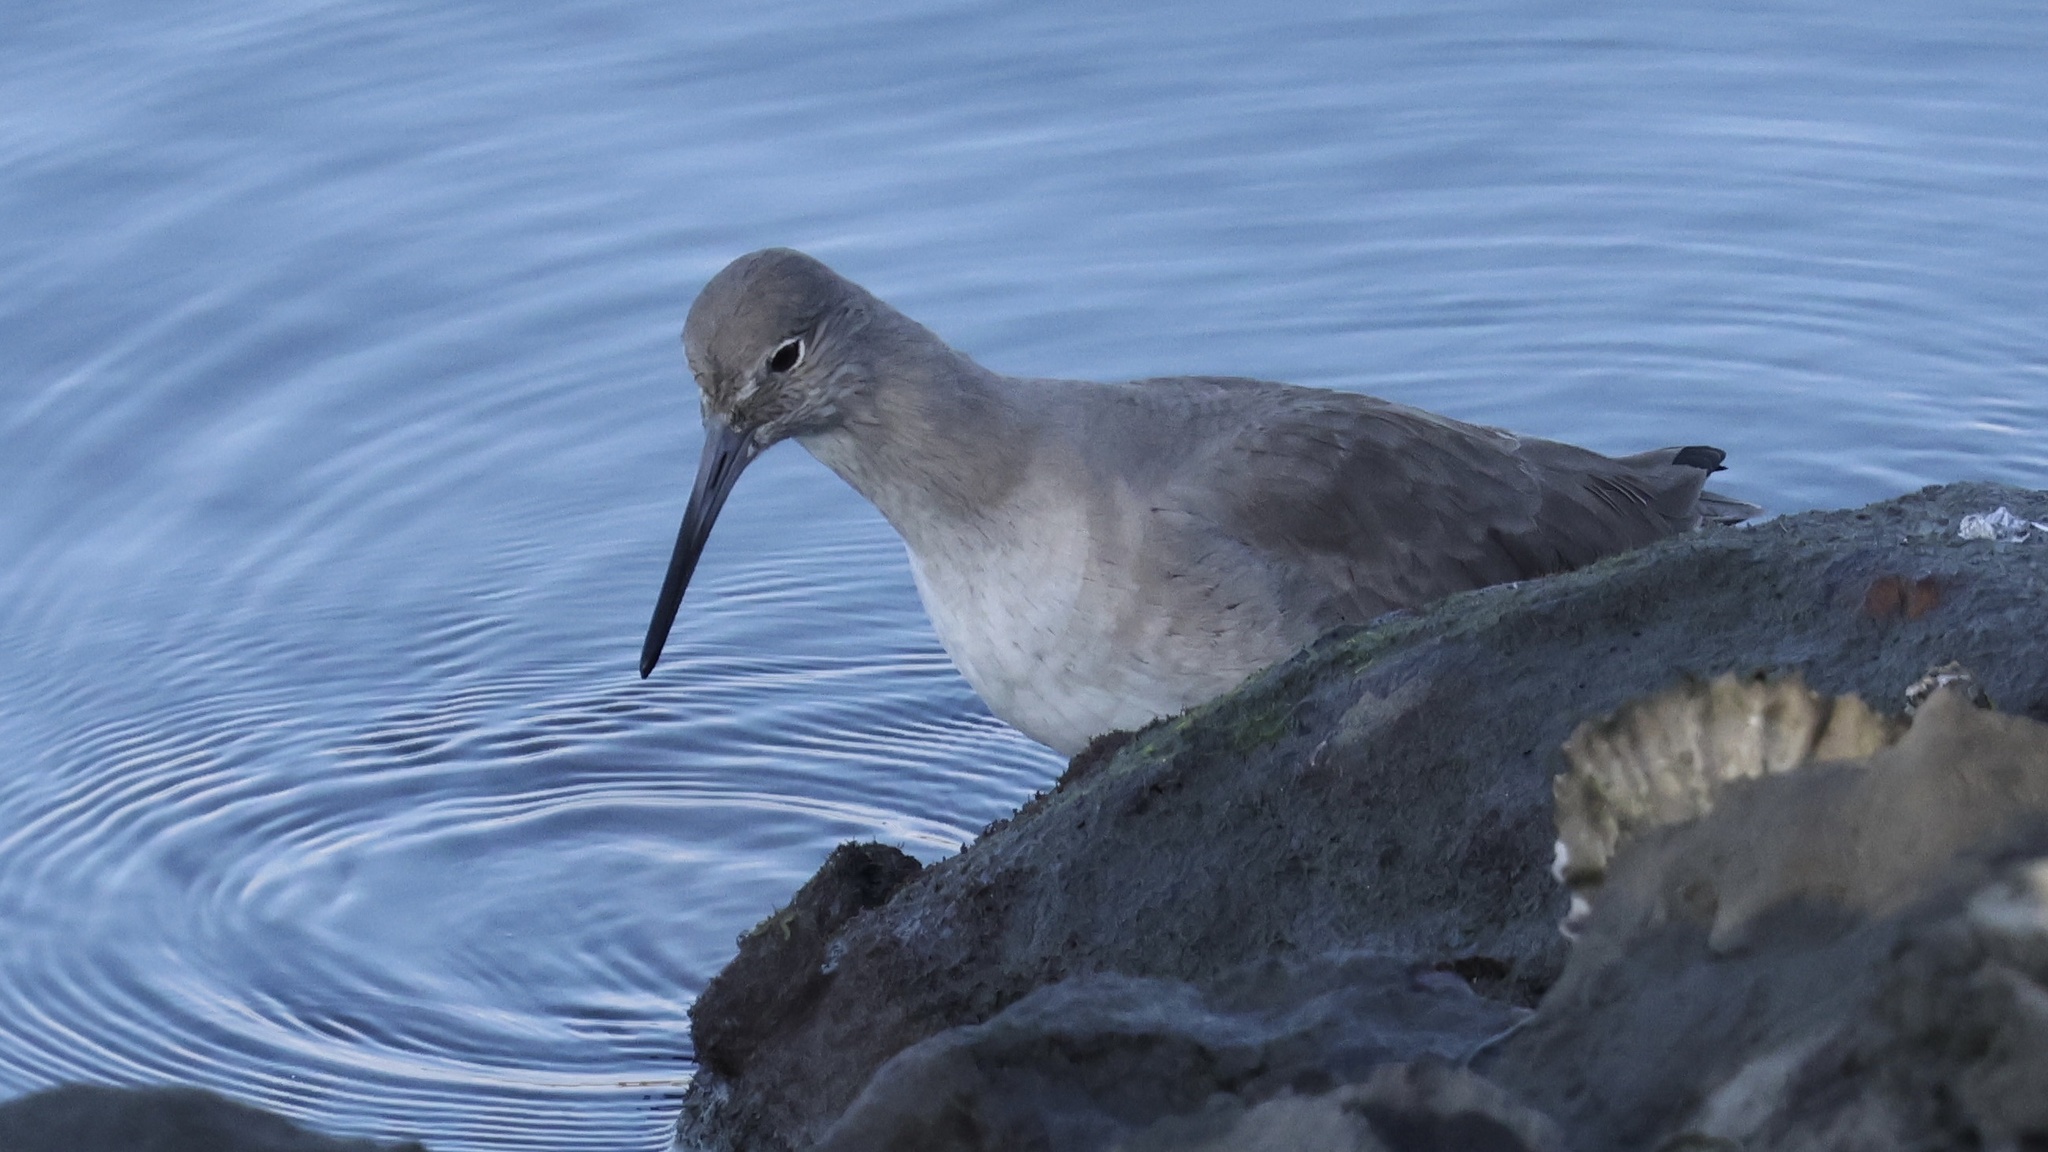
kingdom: Animalia
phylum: Chordata
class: Aves
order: Charadriiformes
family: Scolopacidae
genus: Tringa
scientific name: Tringa semipalmata
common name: Willet
